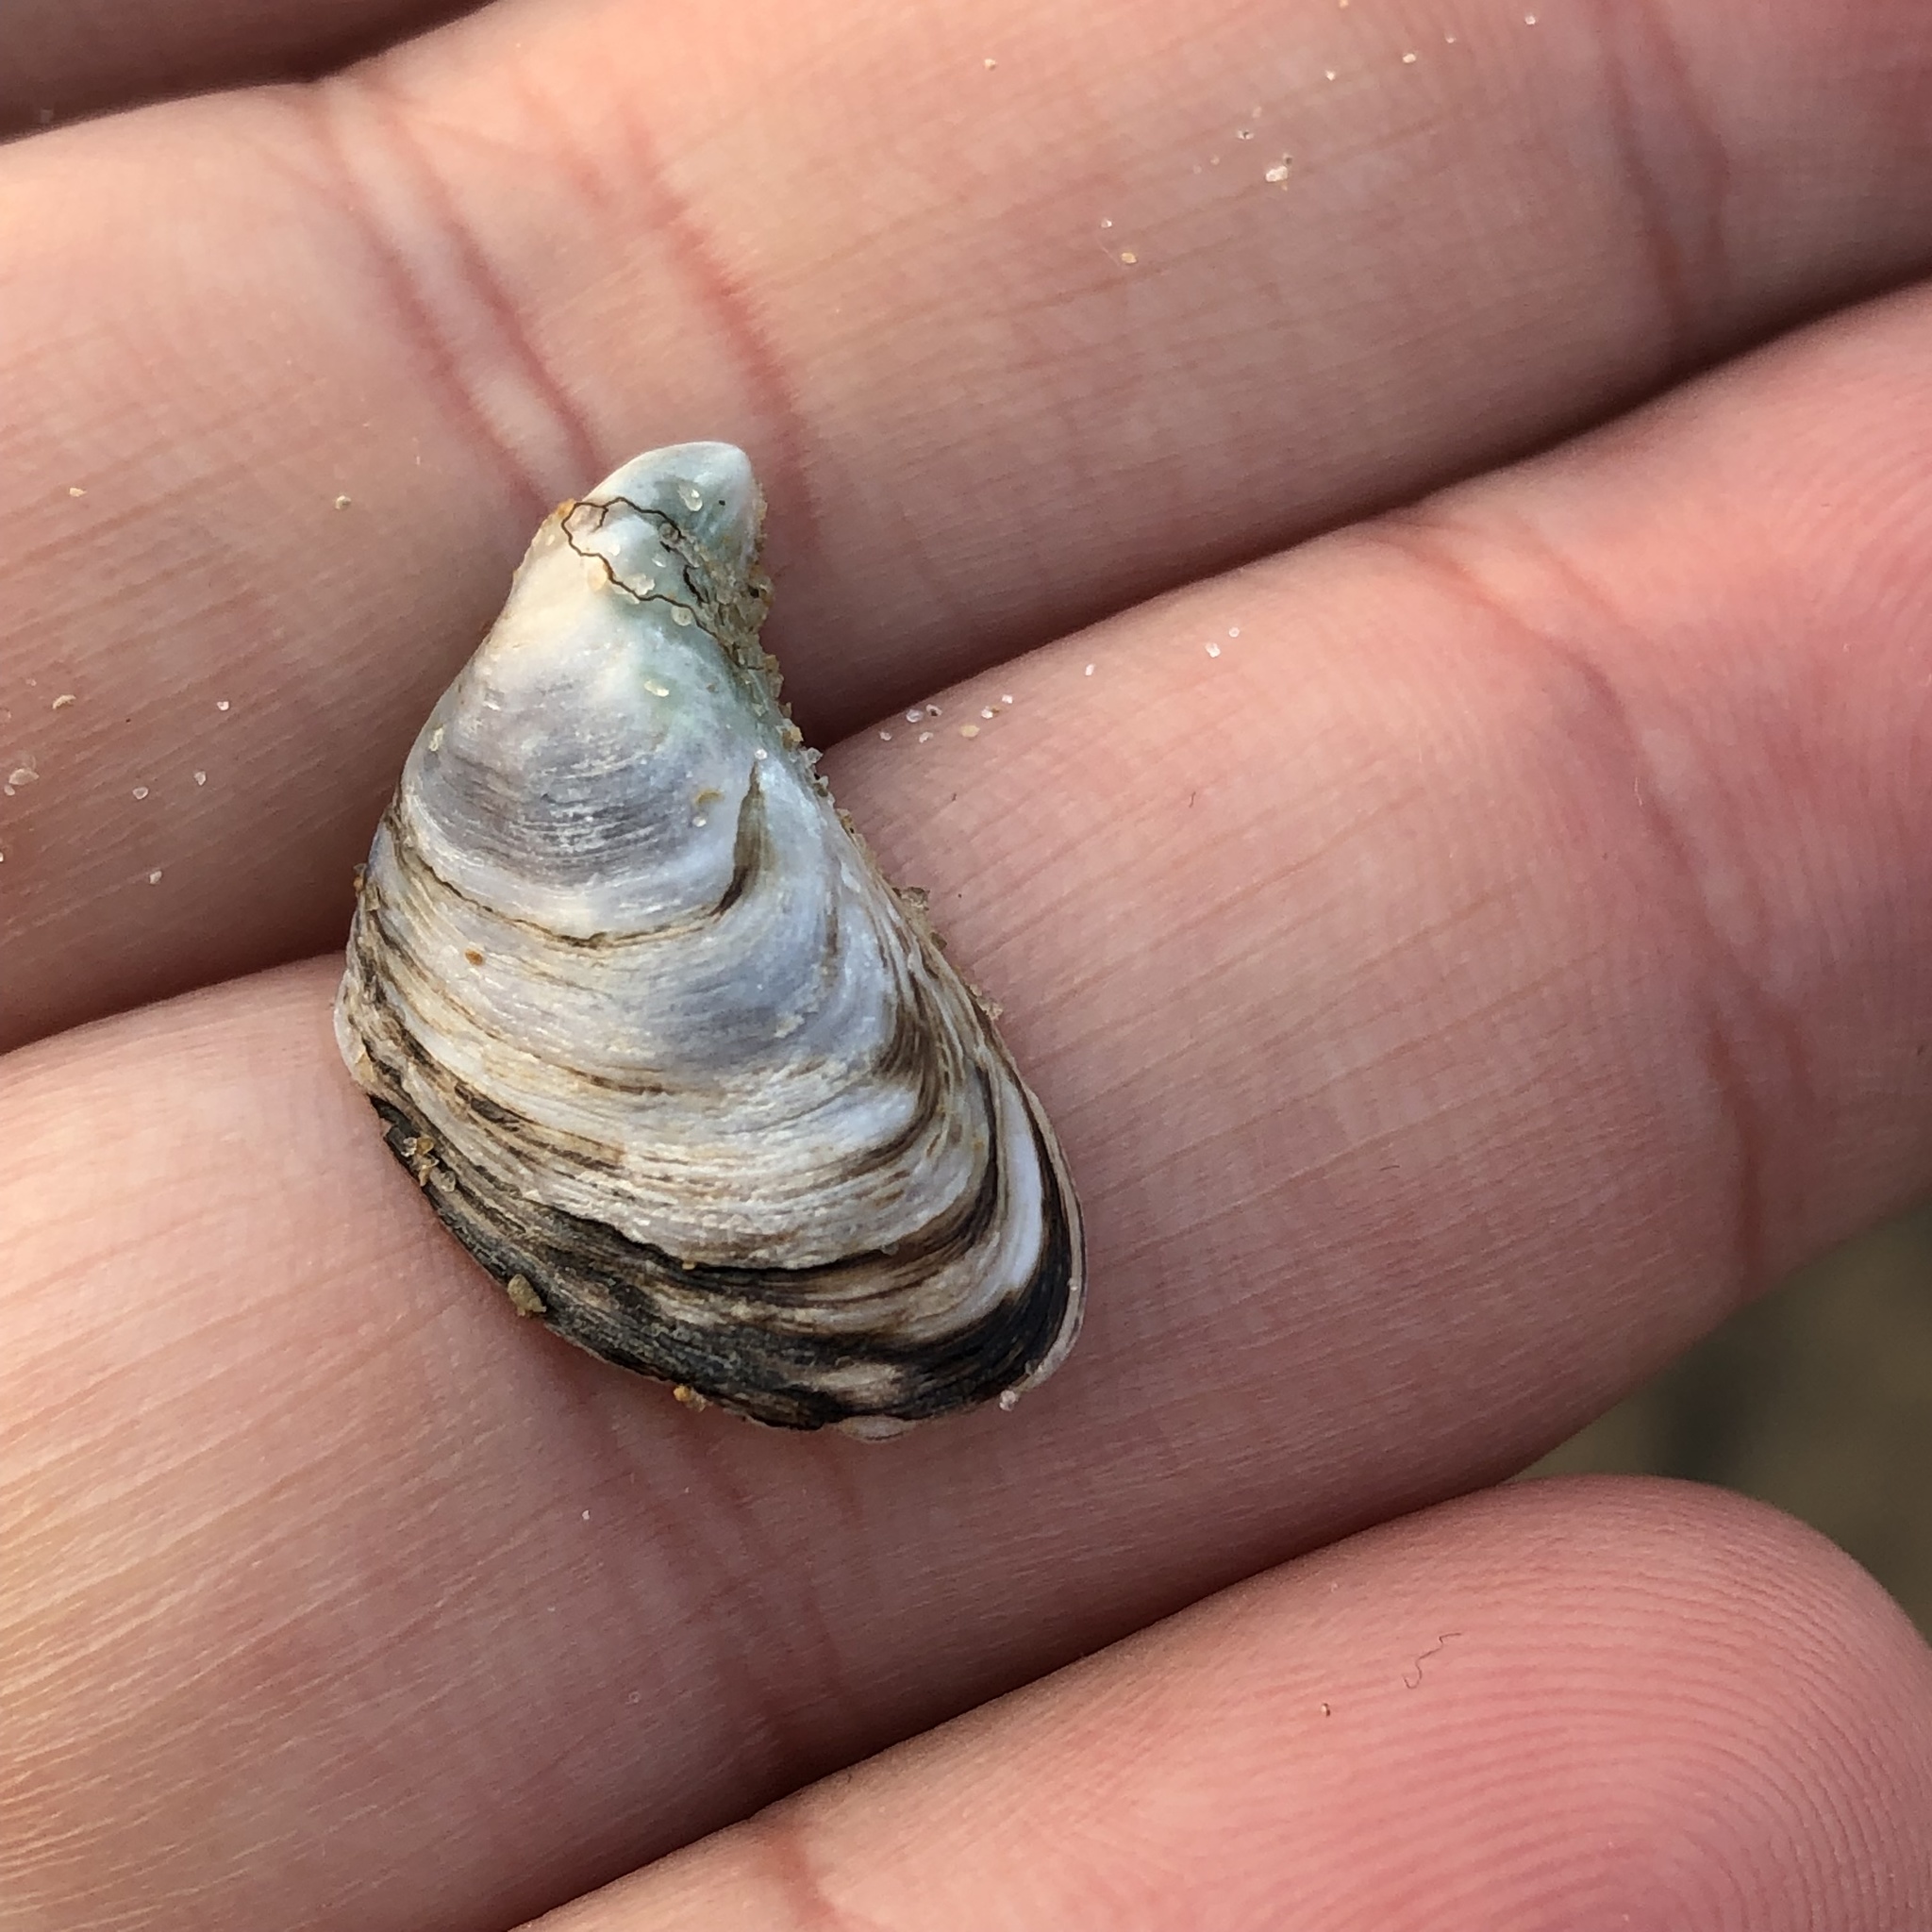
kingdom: Animalia
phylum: Mollusca
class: Bivalvia
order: Myida
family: Dreissenidae
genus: Dreissena
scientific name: Dreissena bugensis
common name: Quagga mussel
